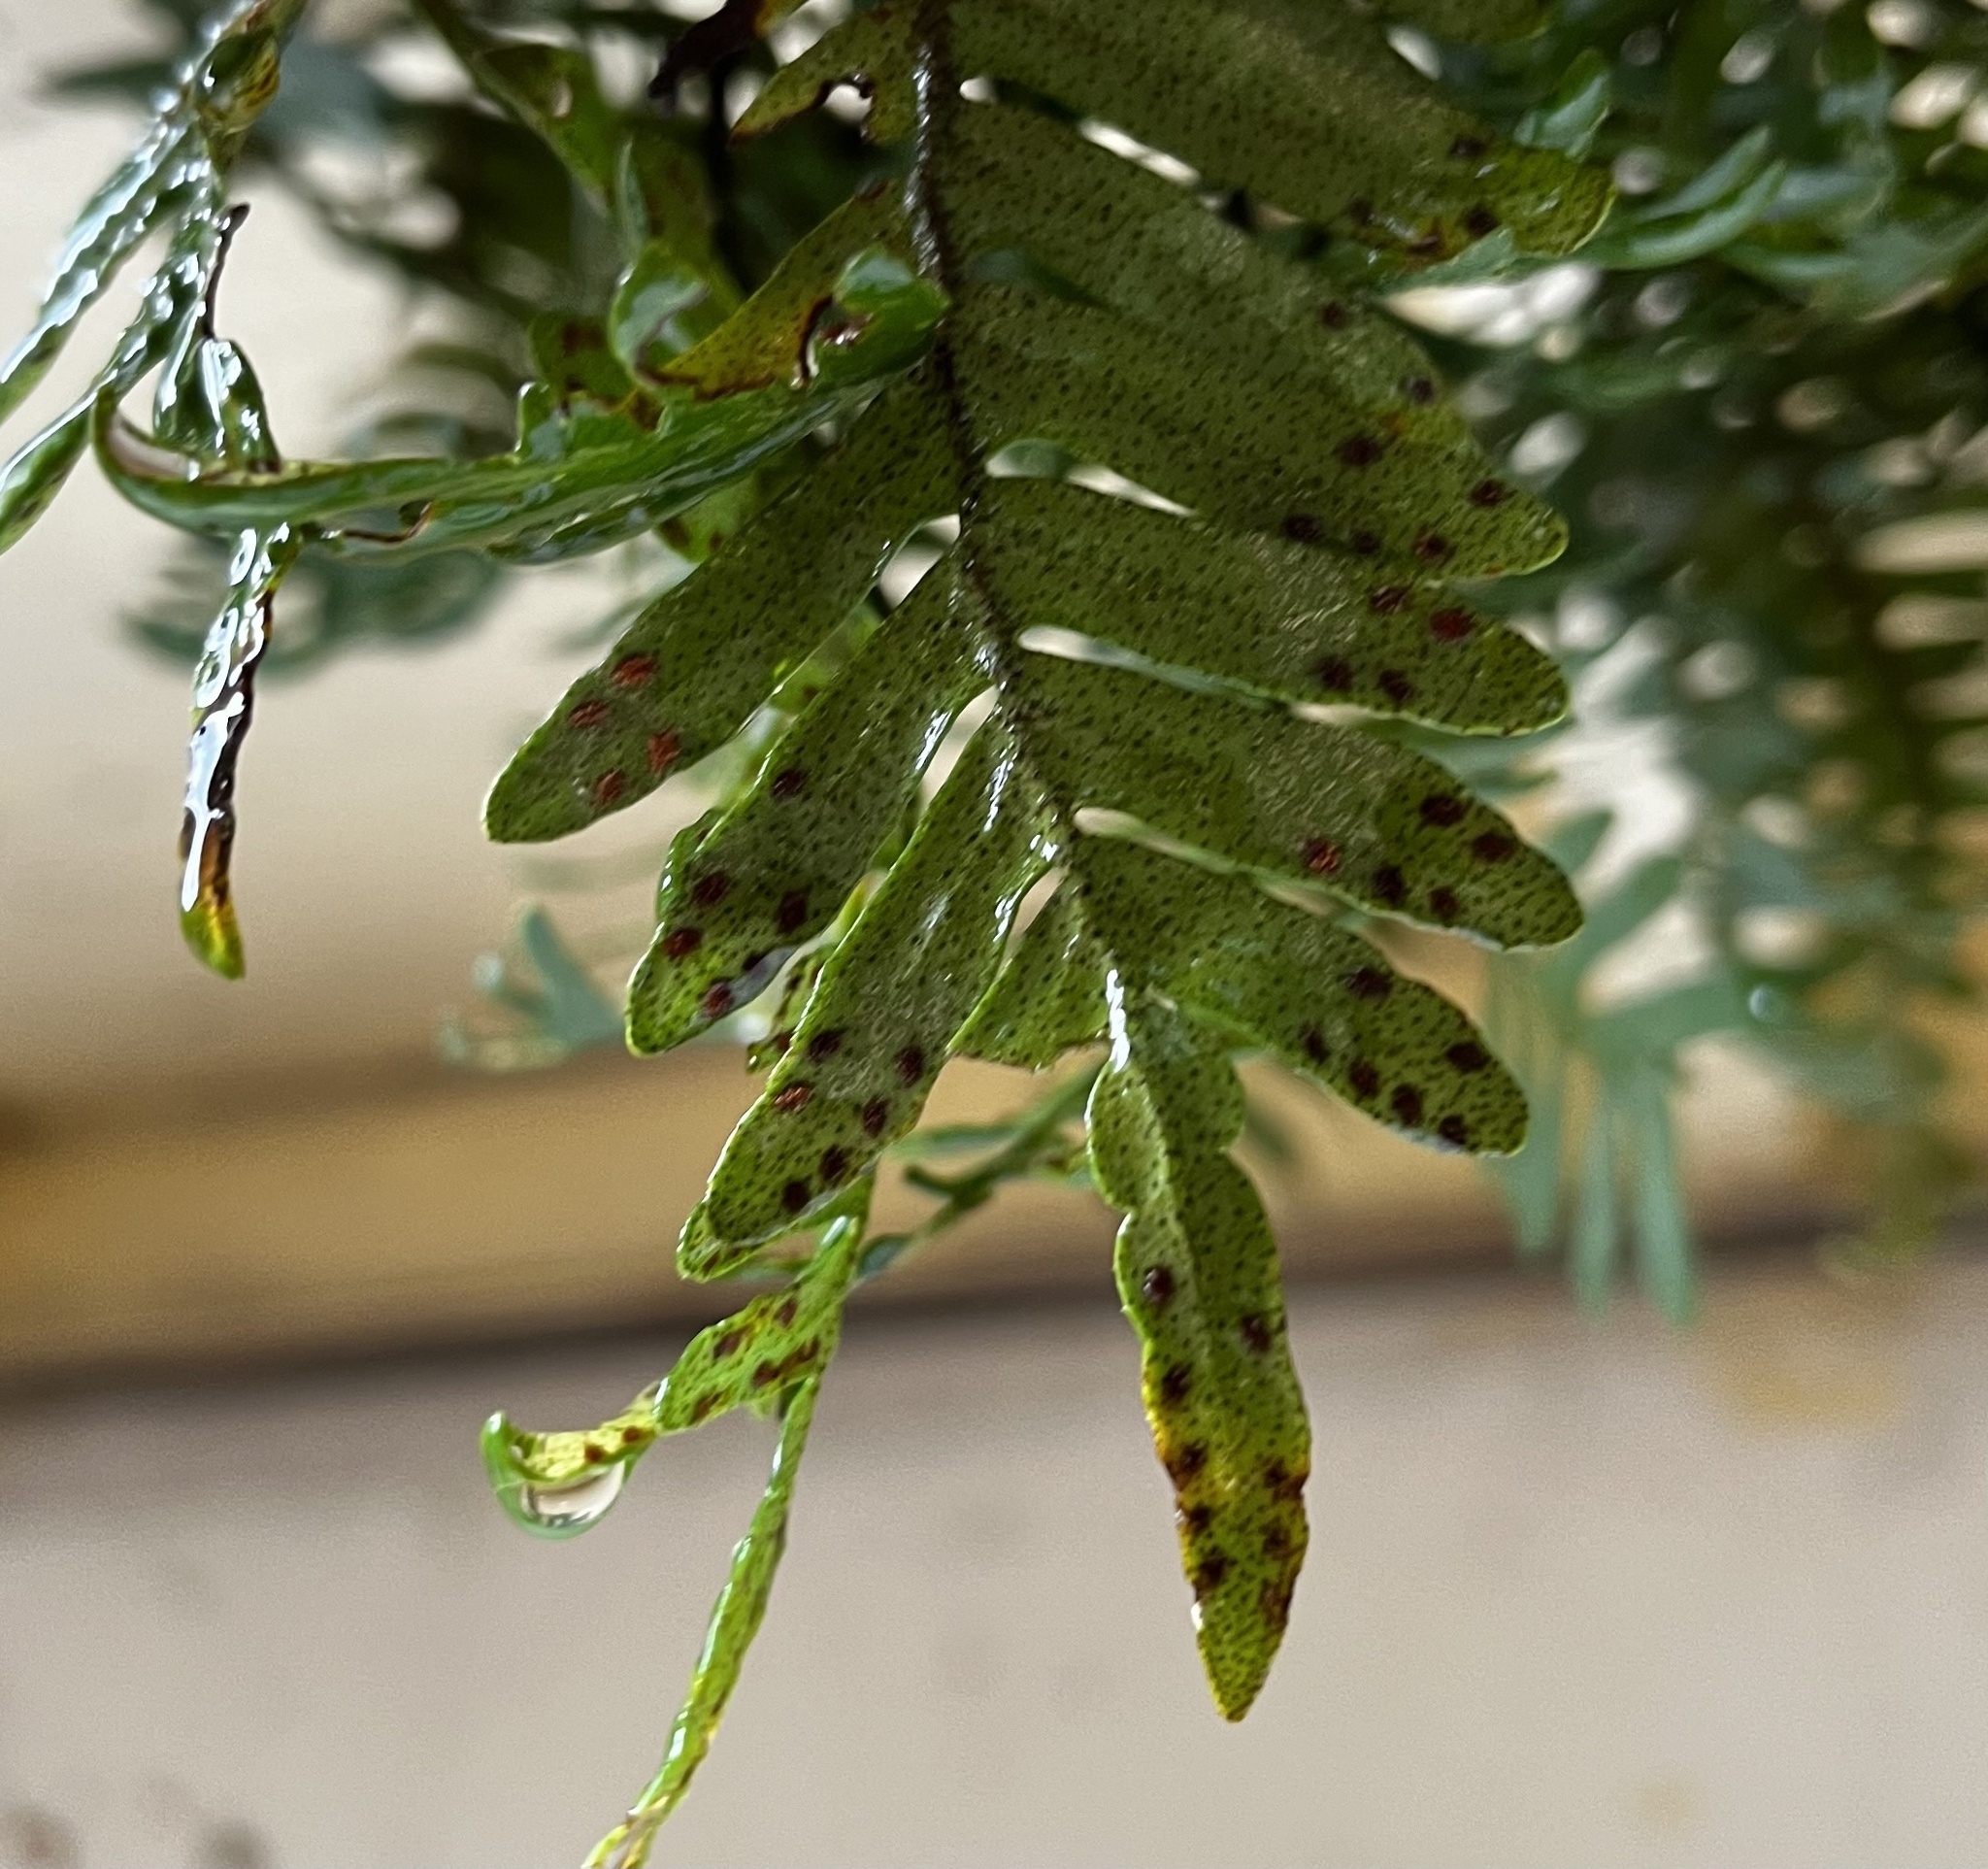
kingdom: Plantae
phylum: Tracheophyta
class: Polypodiopsida
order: Polypodiales
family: Polypodiaceae
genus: Pleopeltis
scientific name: Pleopeltis michauxiana
